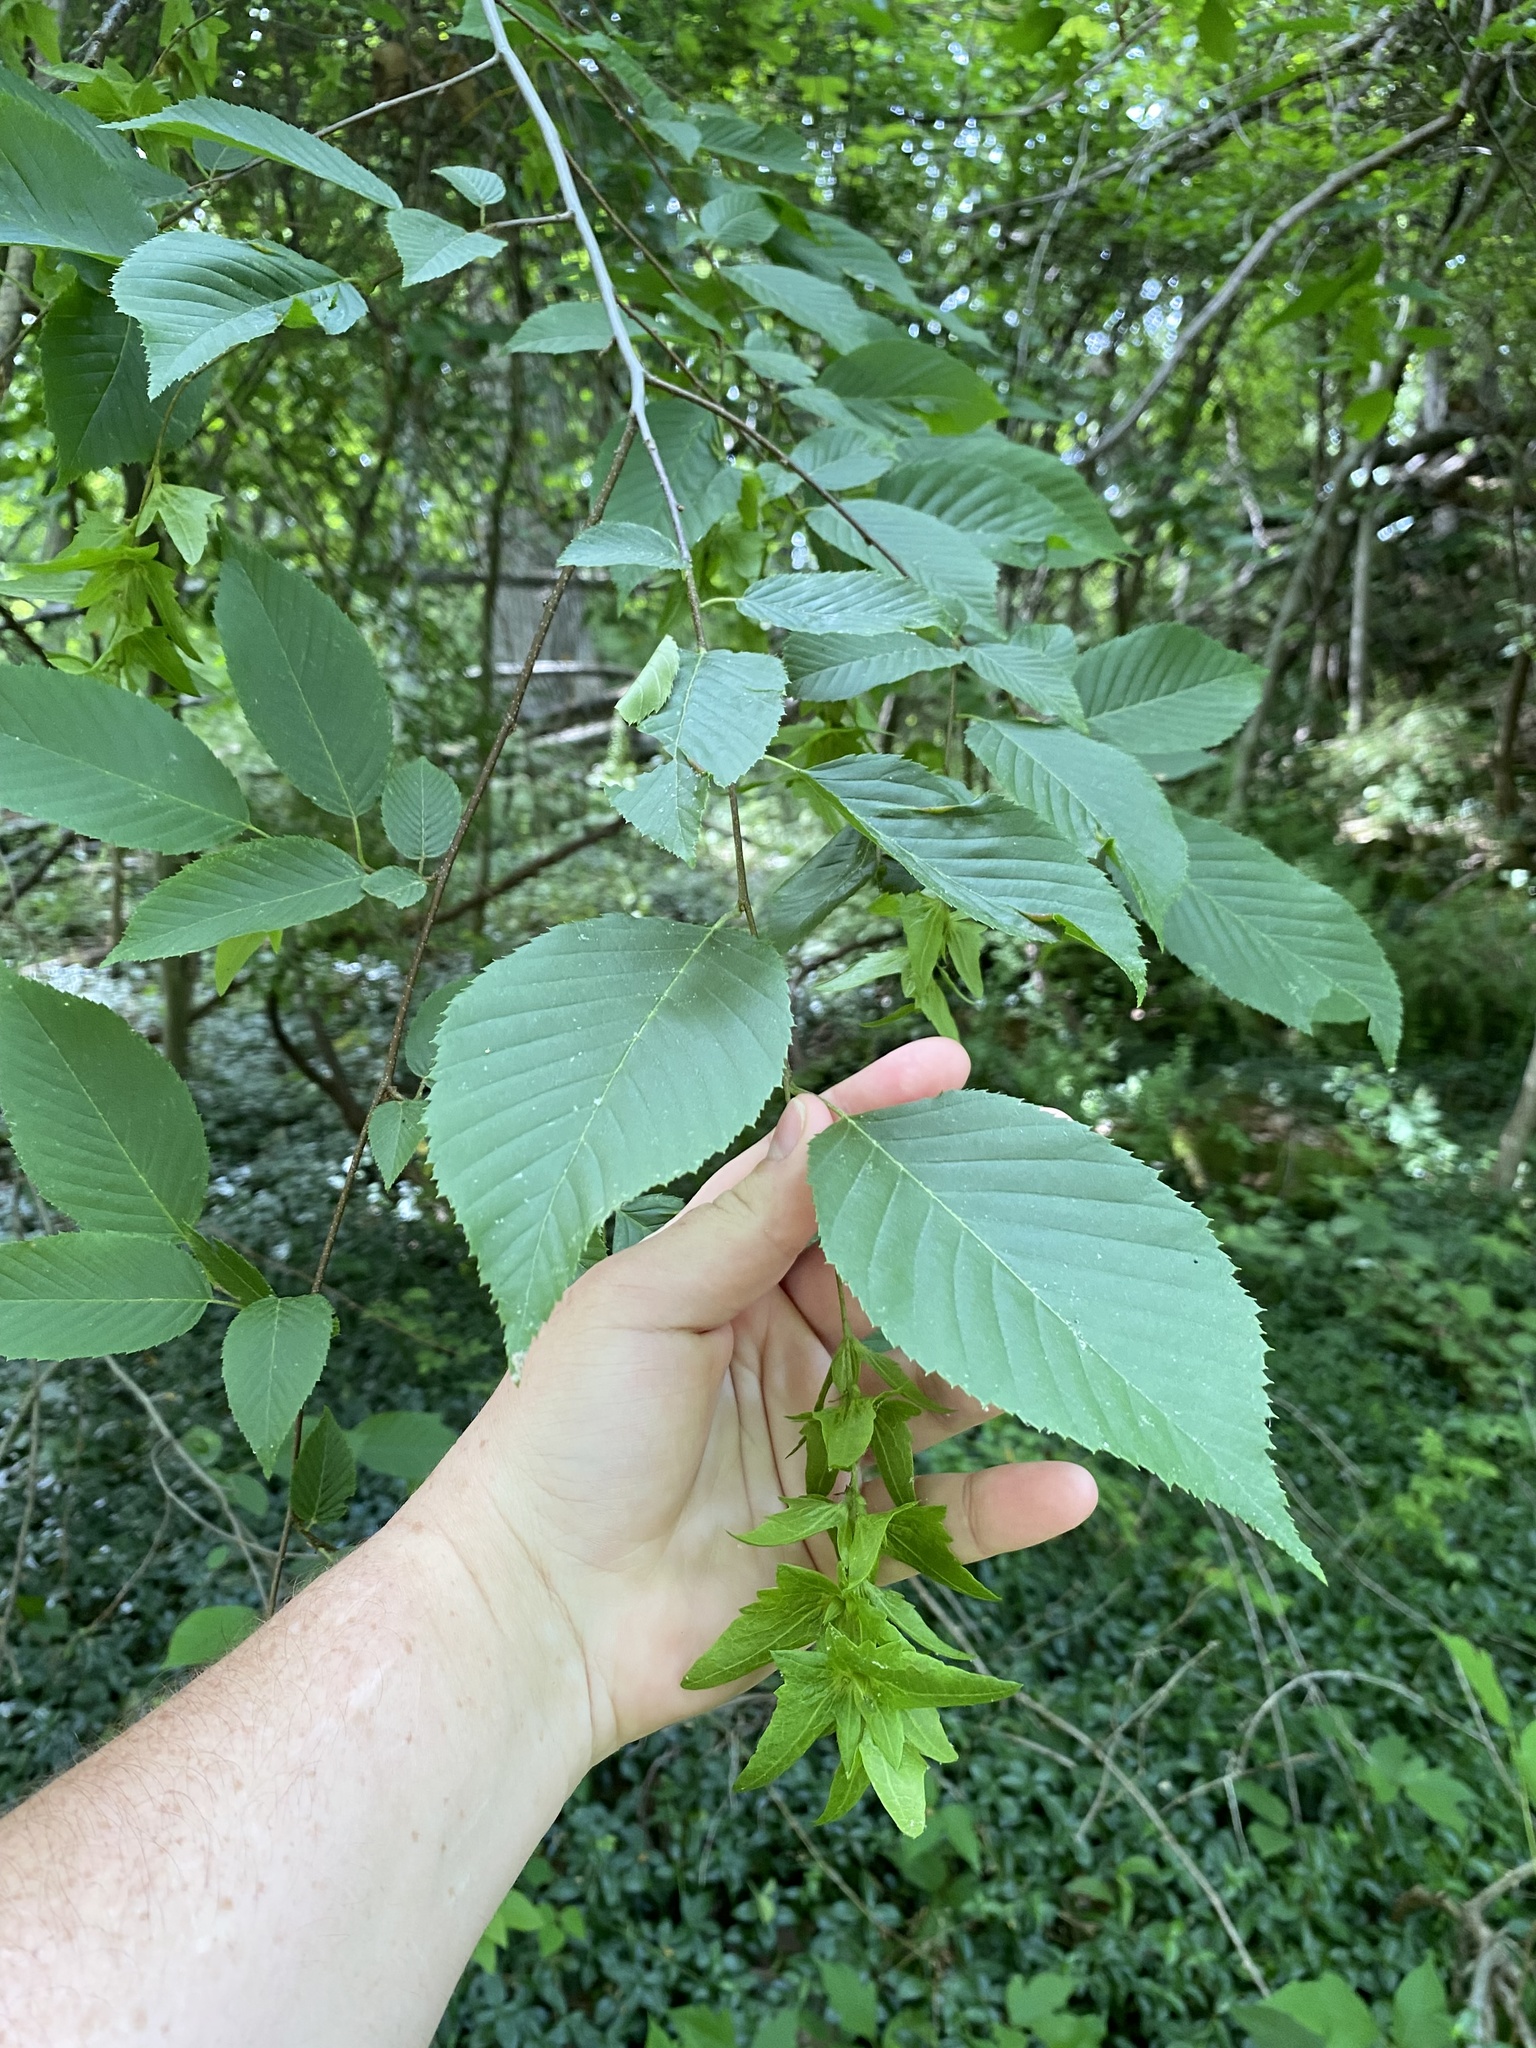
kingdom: Plantae
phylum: Tracheophyta
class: Magnoliopsida
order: Fagales
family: Betulaceae
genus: Carpinus
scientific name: Carpinus caroliniana
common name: American hornbeam
